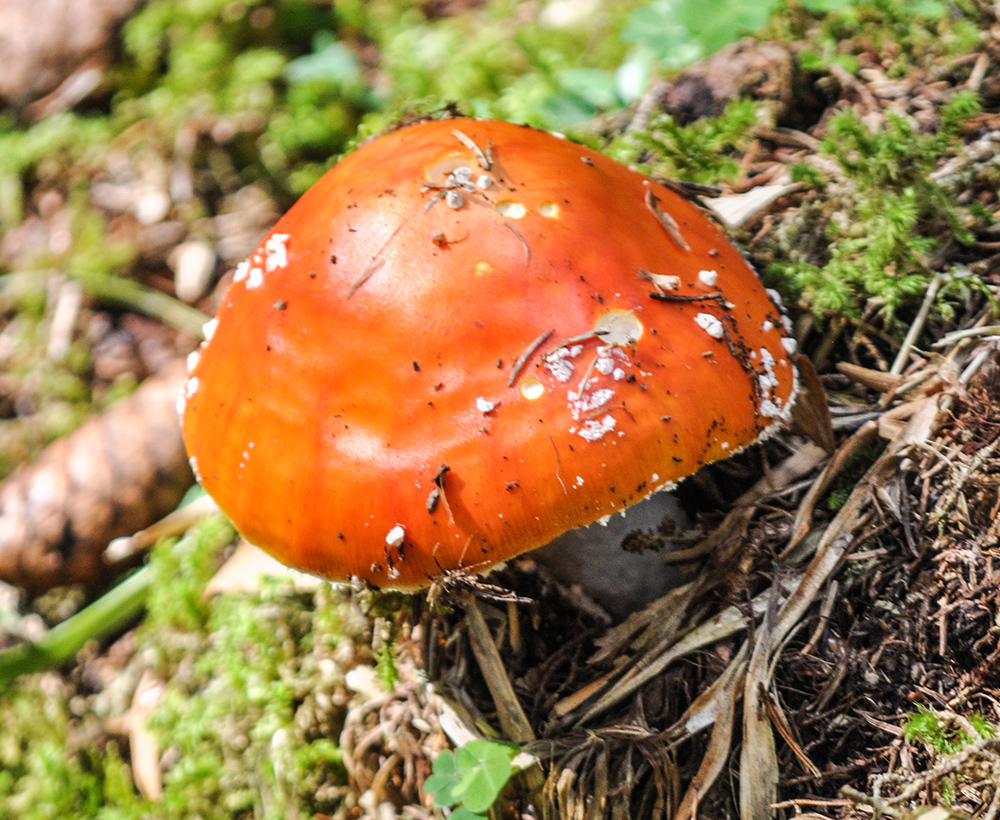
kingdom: Fungi
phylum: Basidiomycota
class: Agaricomycetes
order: Agaricales
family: Amanitaceae
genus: Amanita
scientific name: Amanita muscaria
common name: Fly agaric
